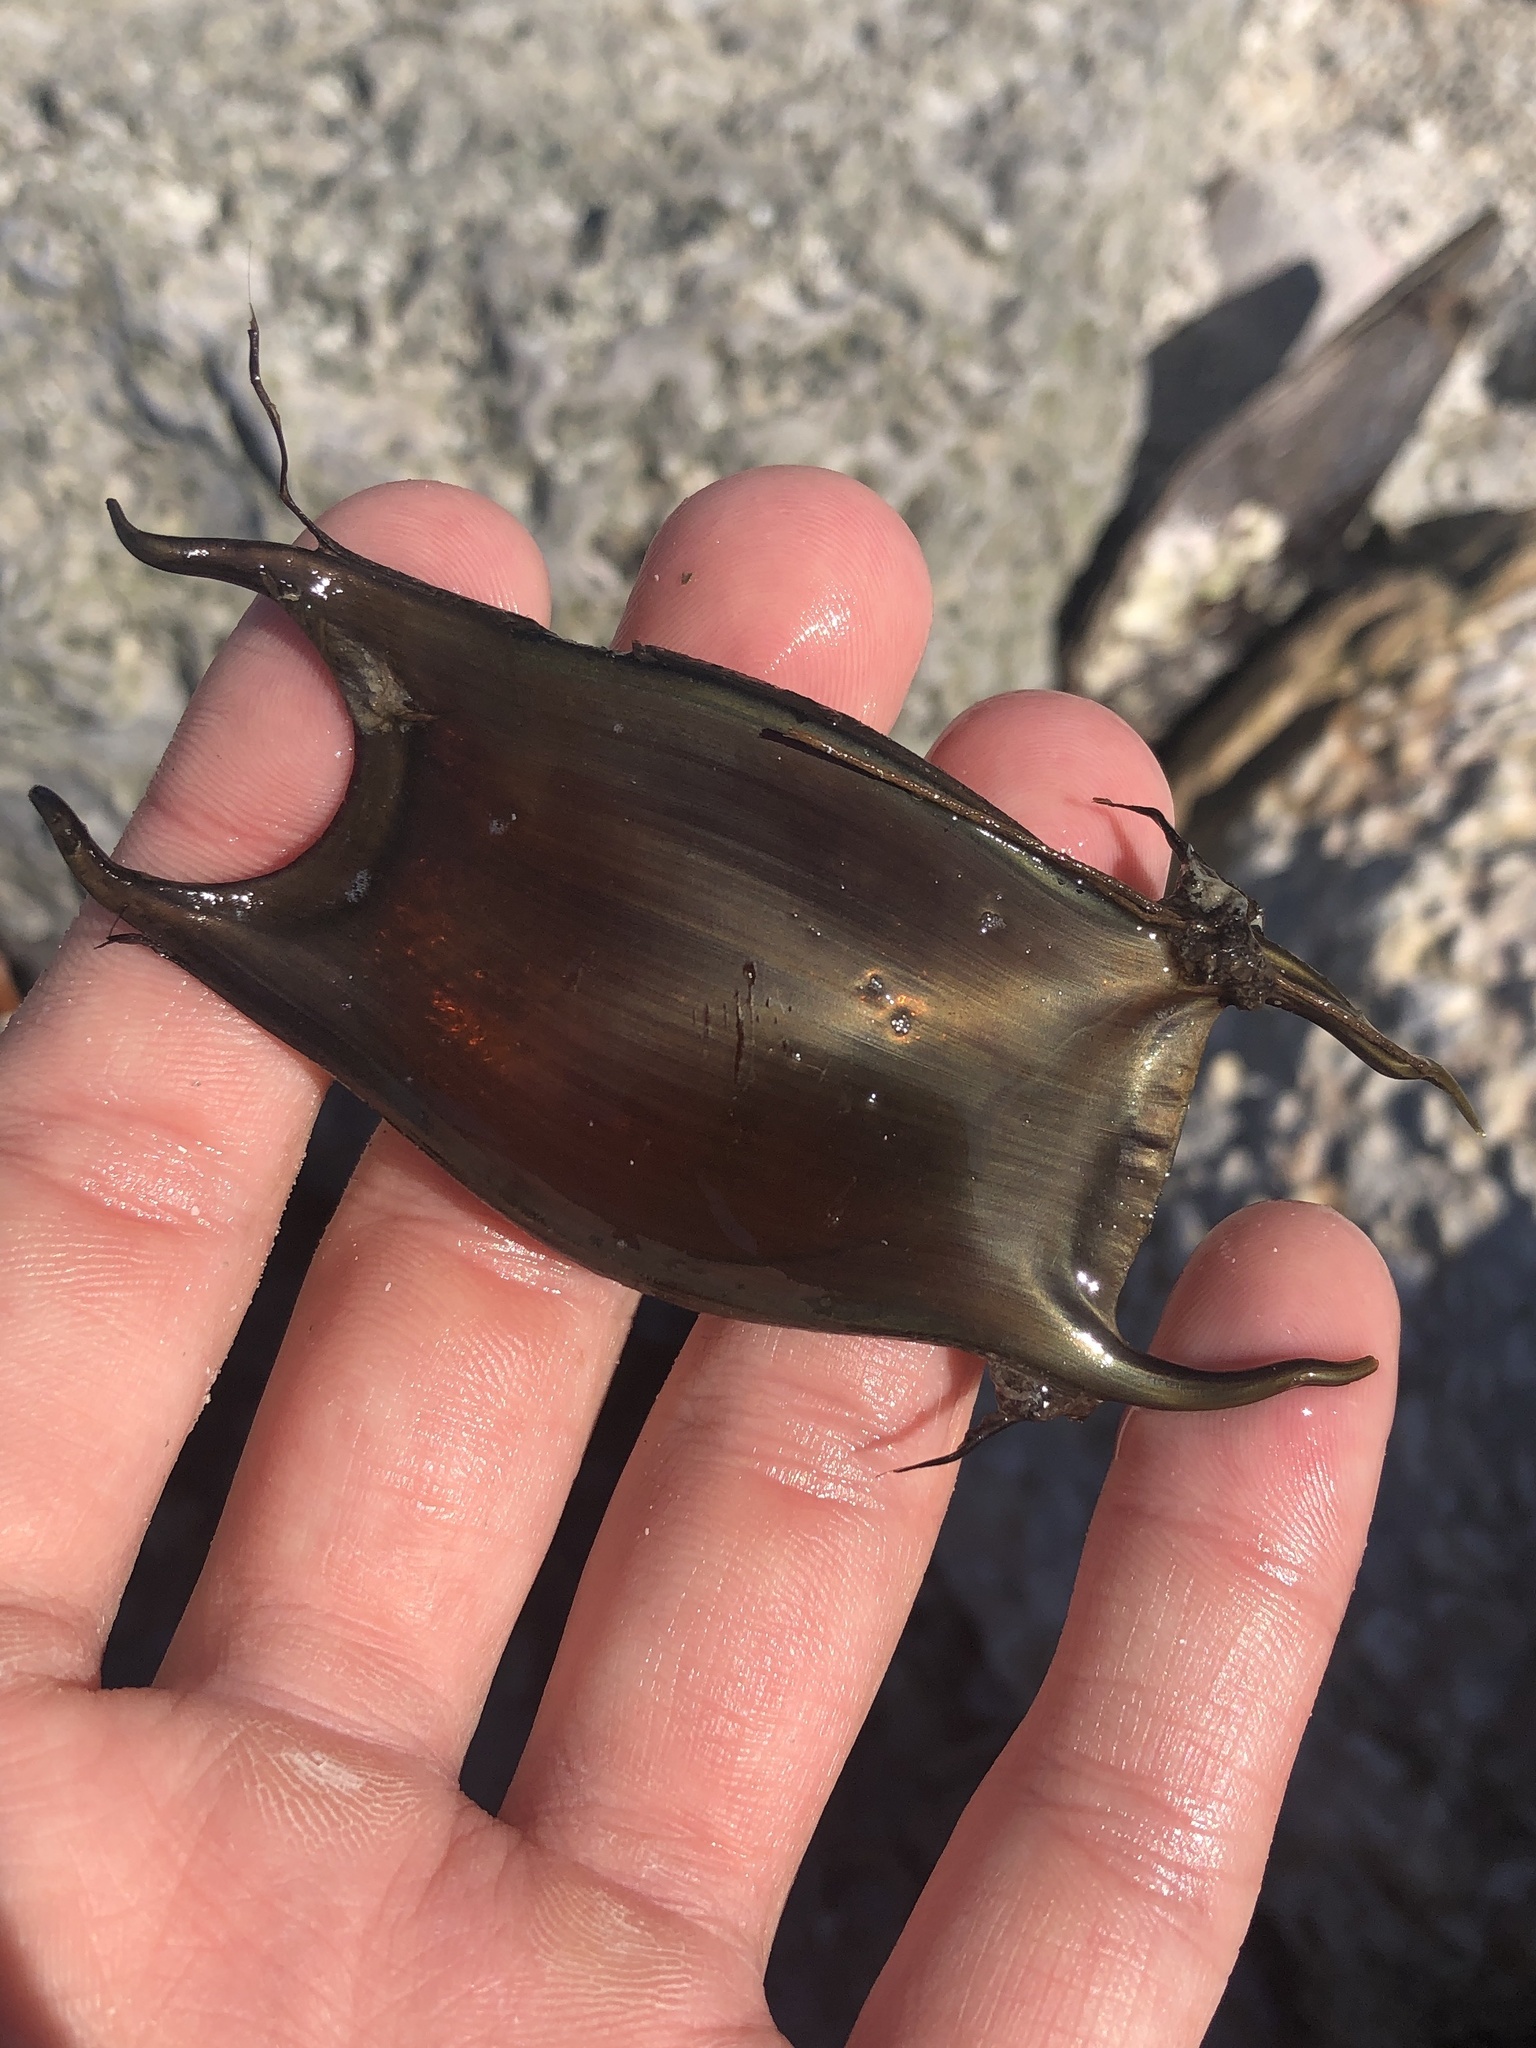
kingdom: Animalia
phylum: Chordata
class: Elasmobranchii
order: Rajiformes
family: Rajidae
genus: Raja
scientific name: Raja eglanteria
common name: Clearnose skate
